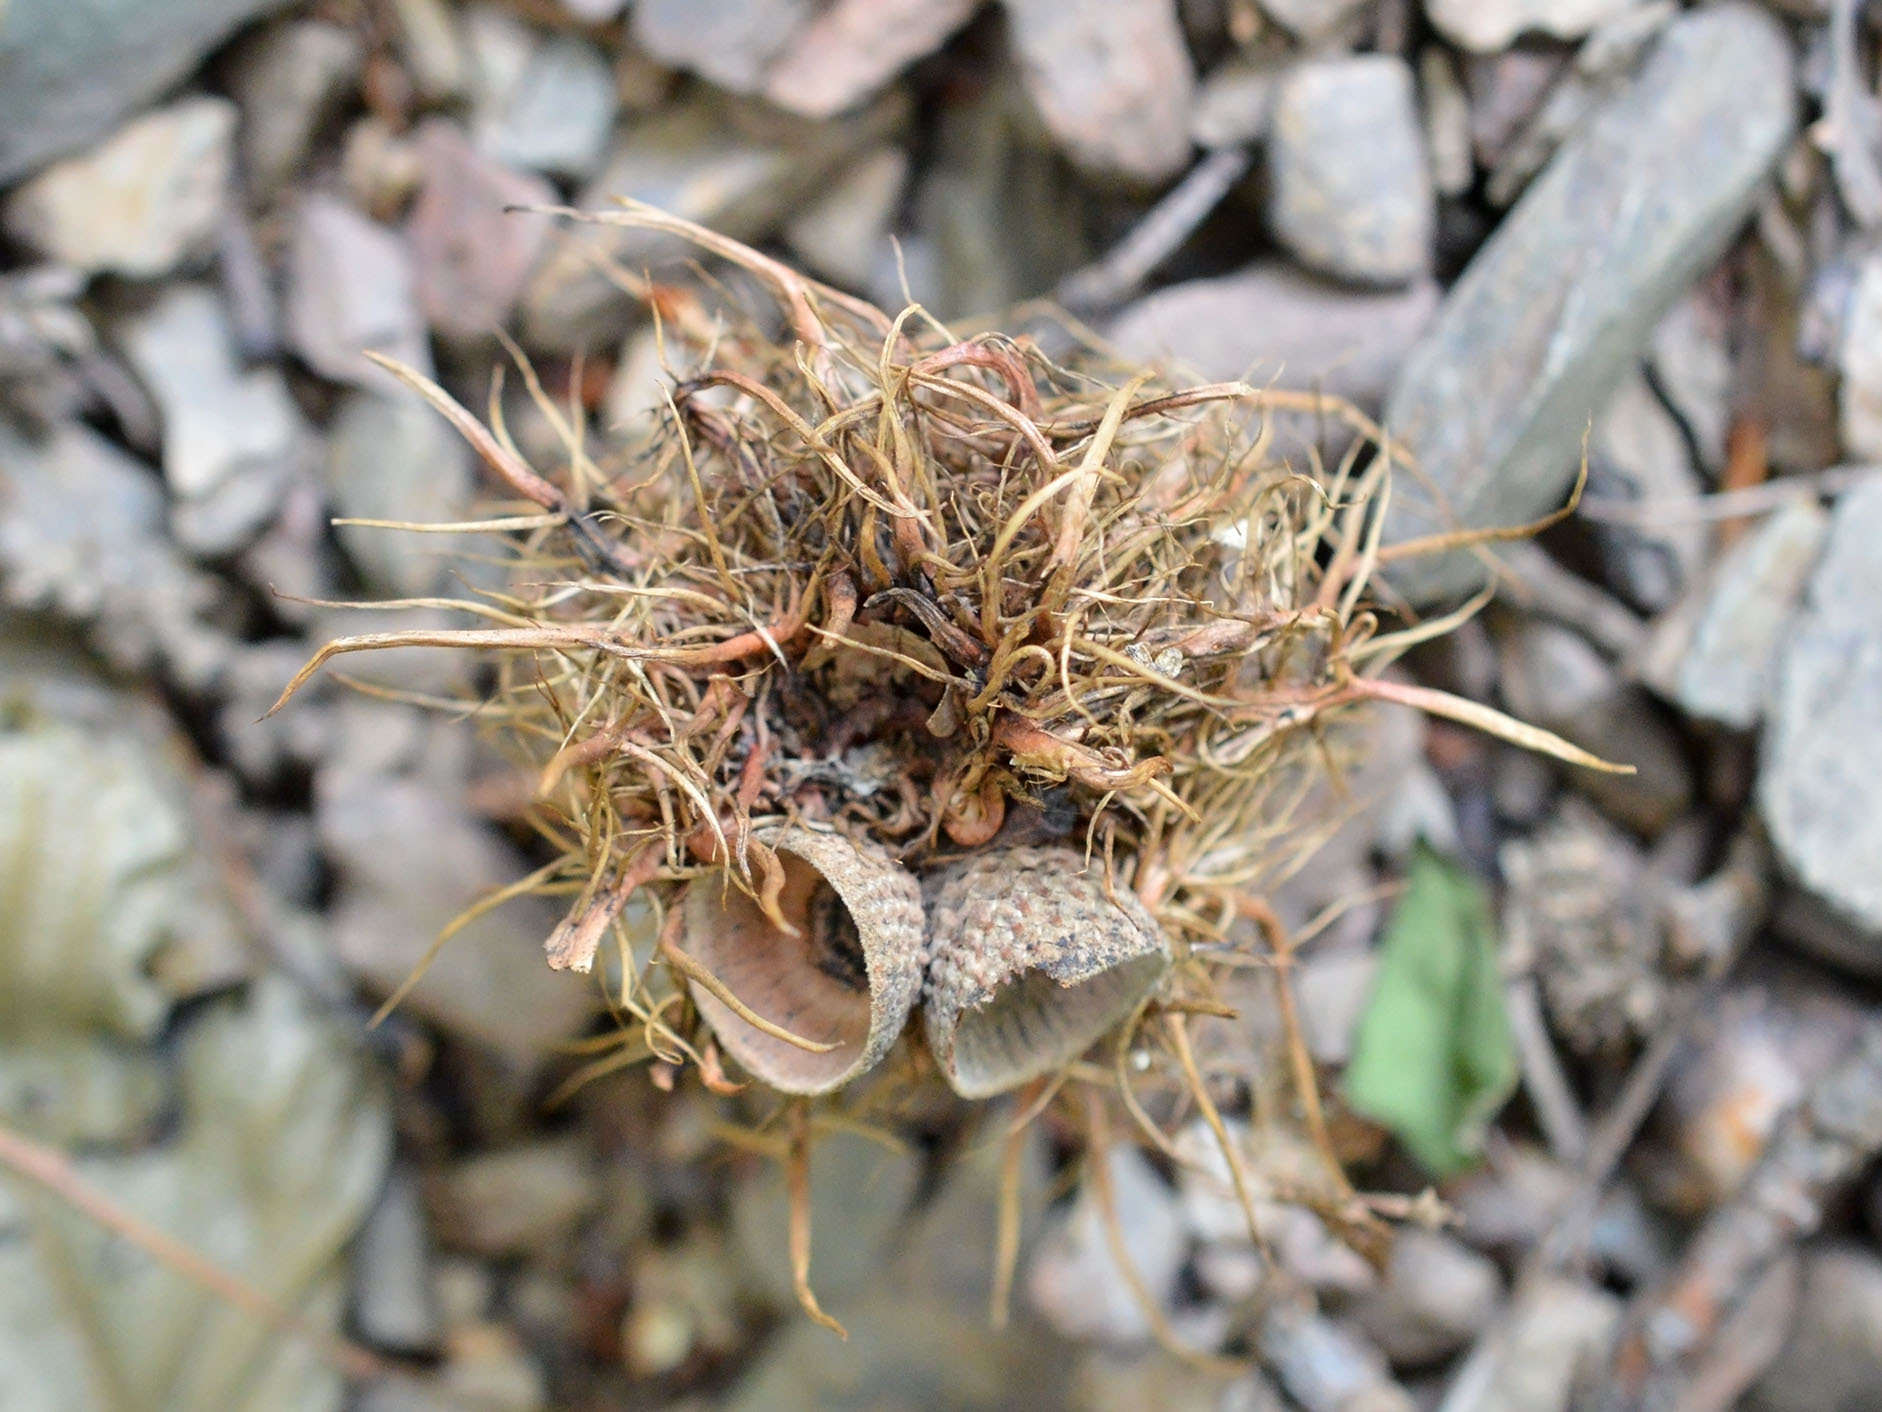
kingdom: Animalia
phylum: Arthropoda
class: Insecta
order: Hymenoptera
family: Cynipidae
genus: Andricus
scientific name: Andricus caputmedusae
